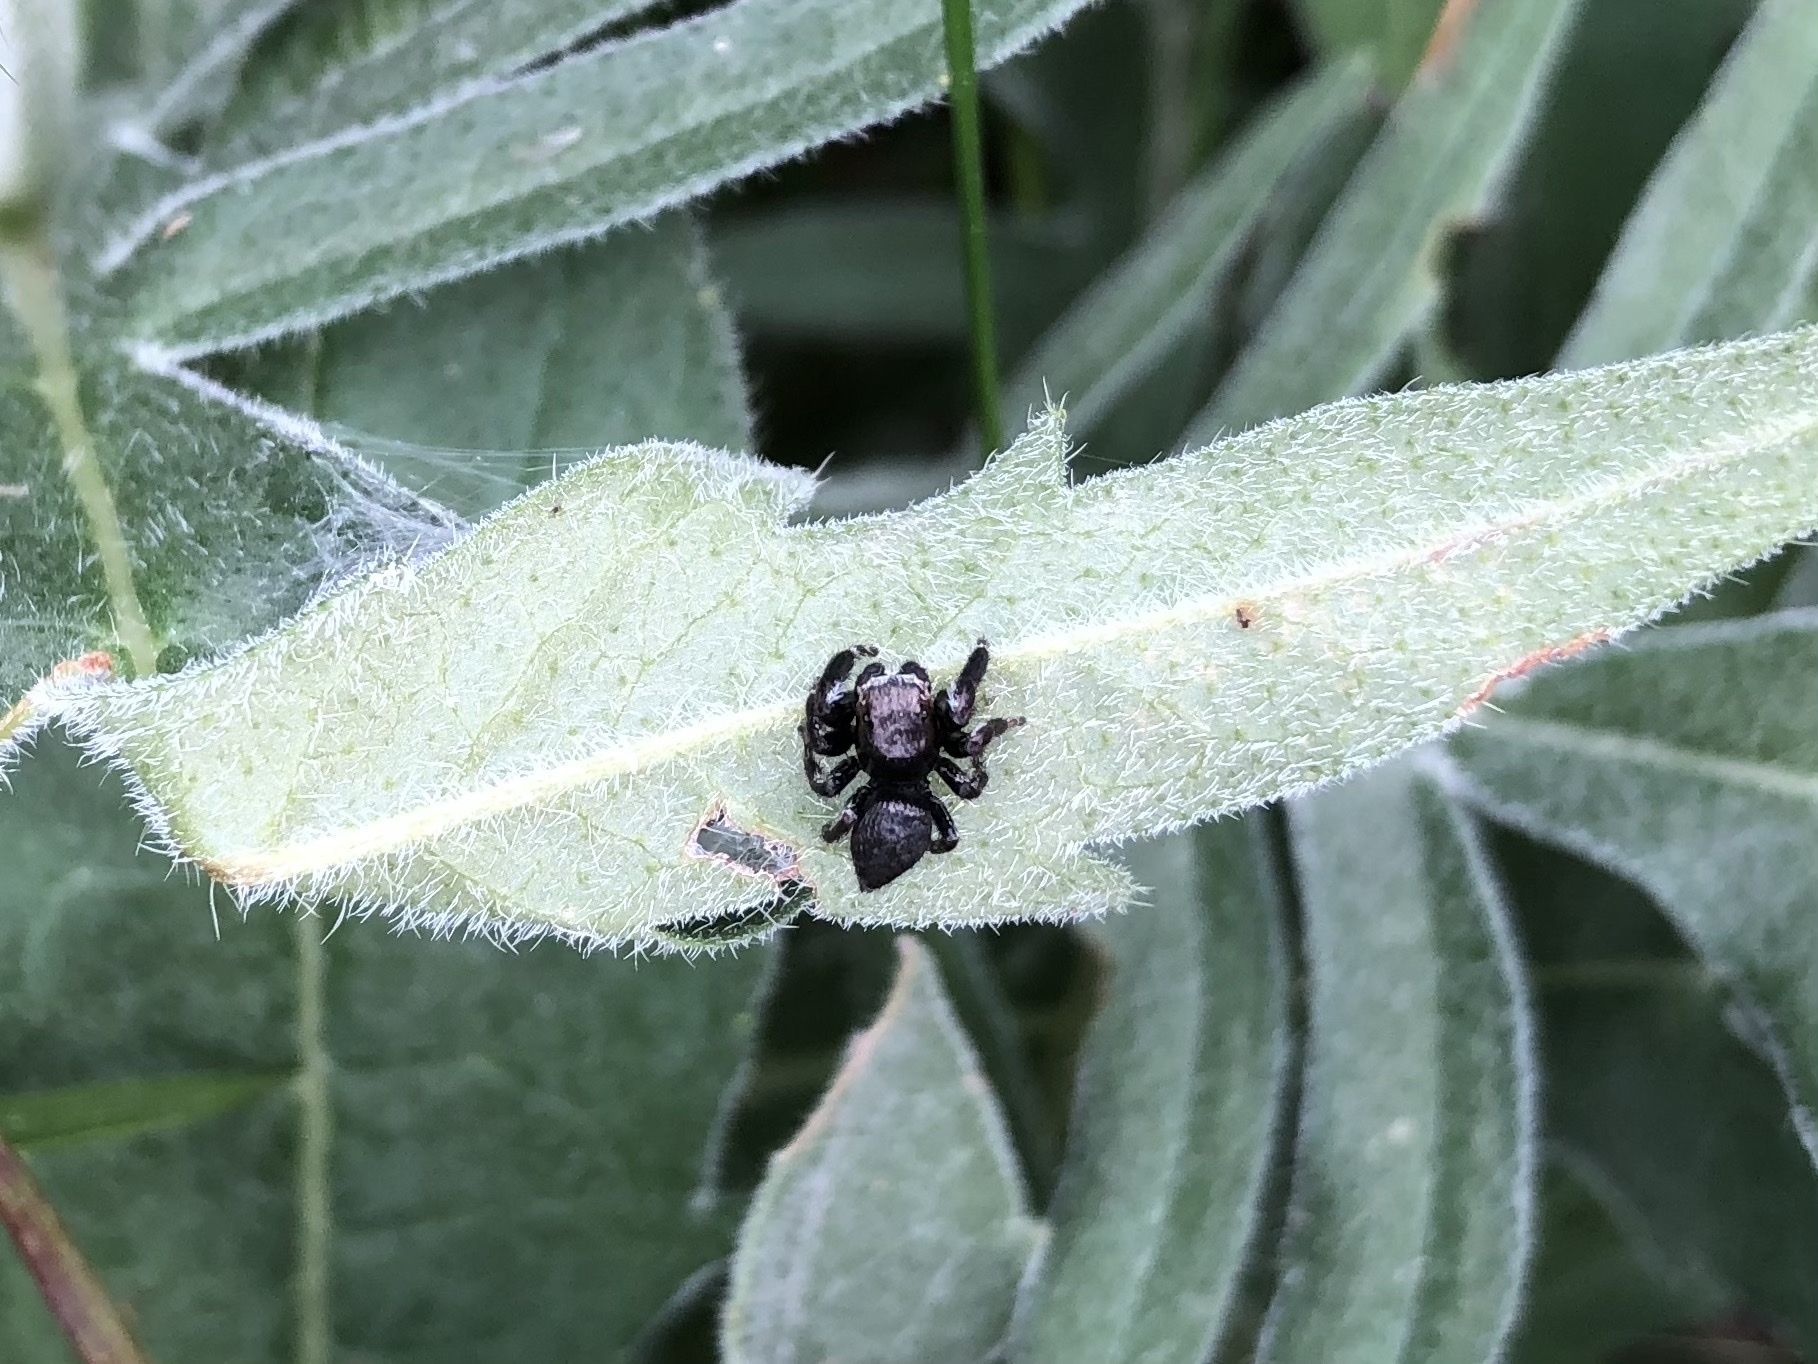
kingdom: Animalia
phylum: Arthropoda
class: Arachnida
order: Araneae
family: Salticidae
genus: Evarcha
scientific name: Evarcha arcuata
